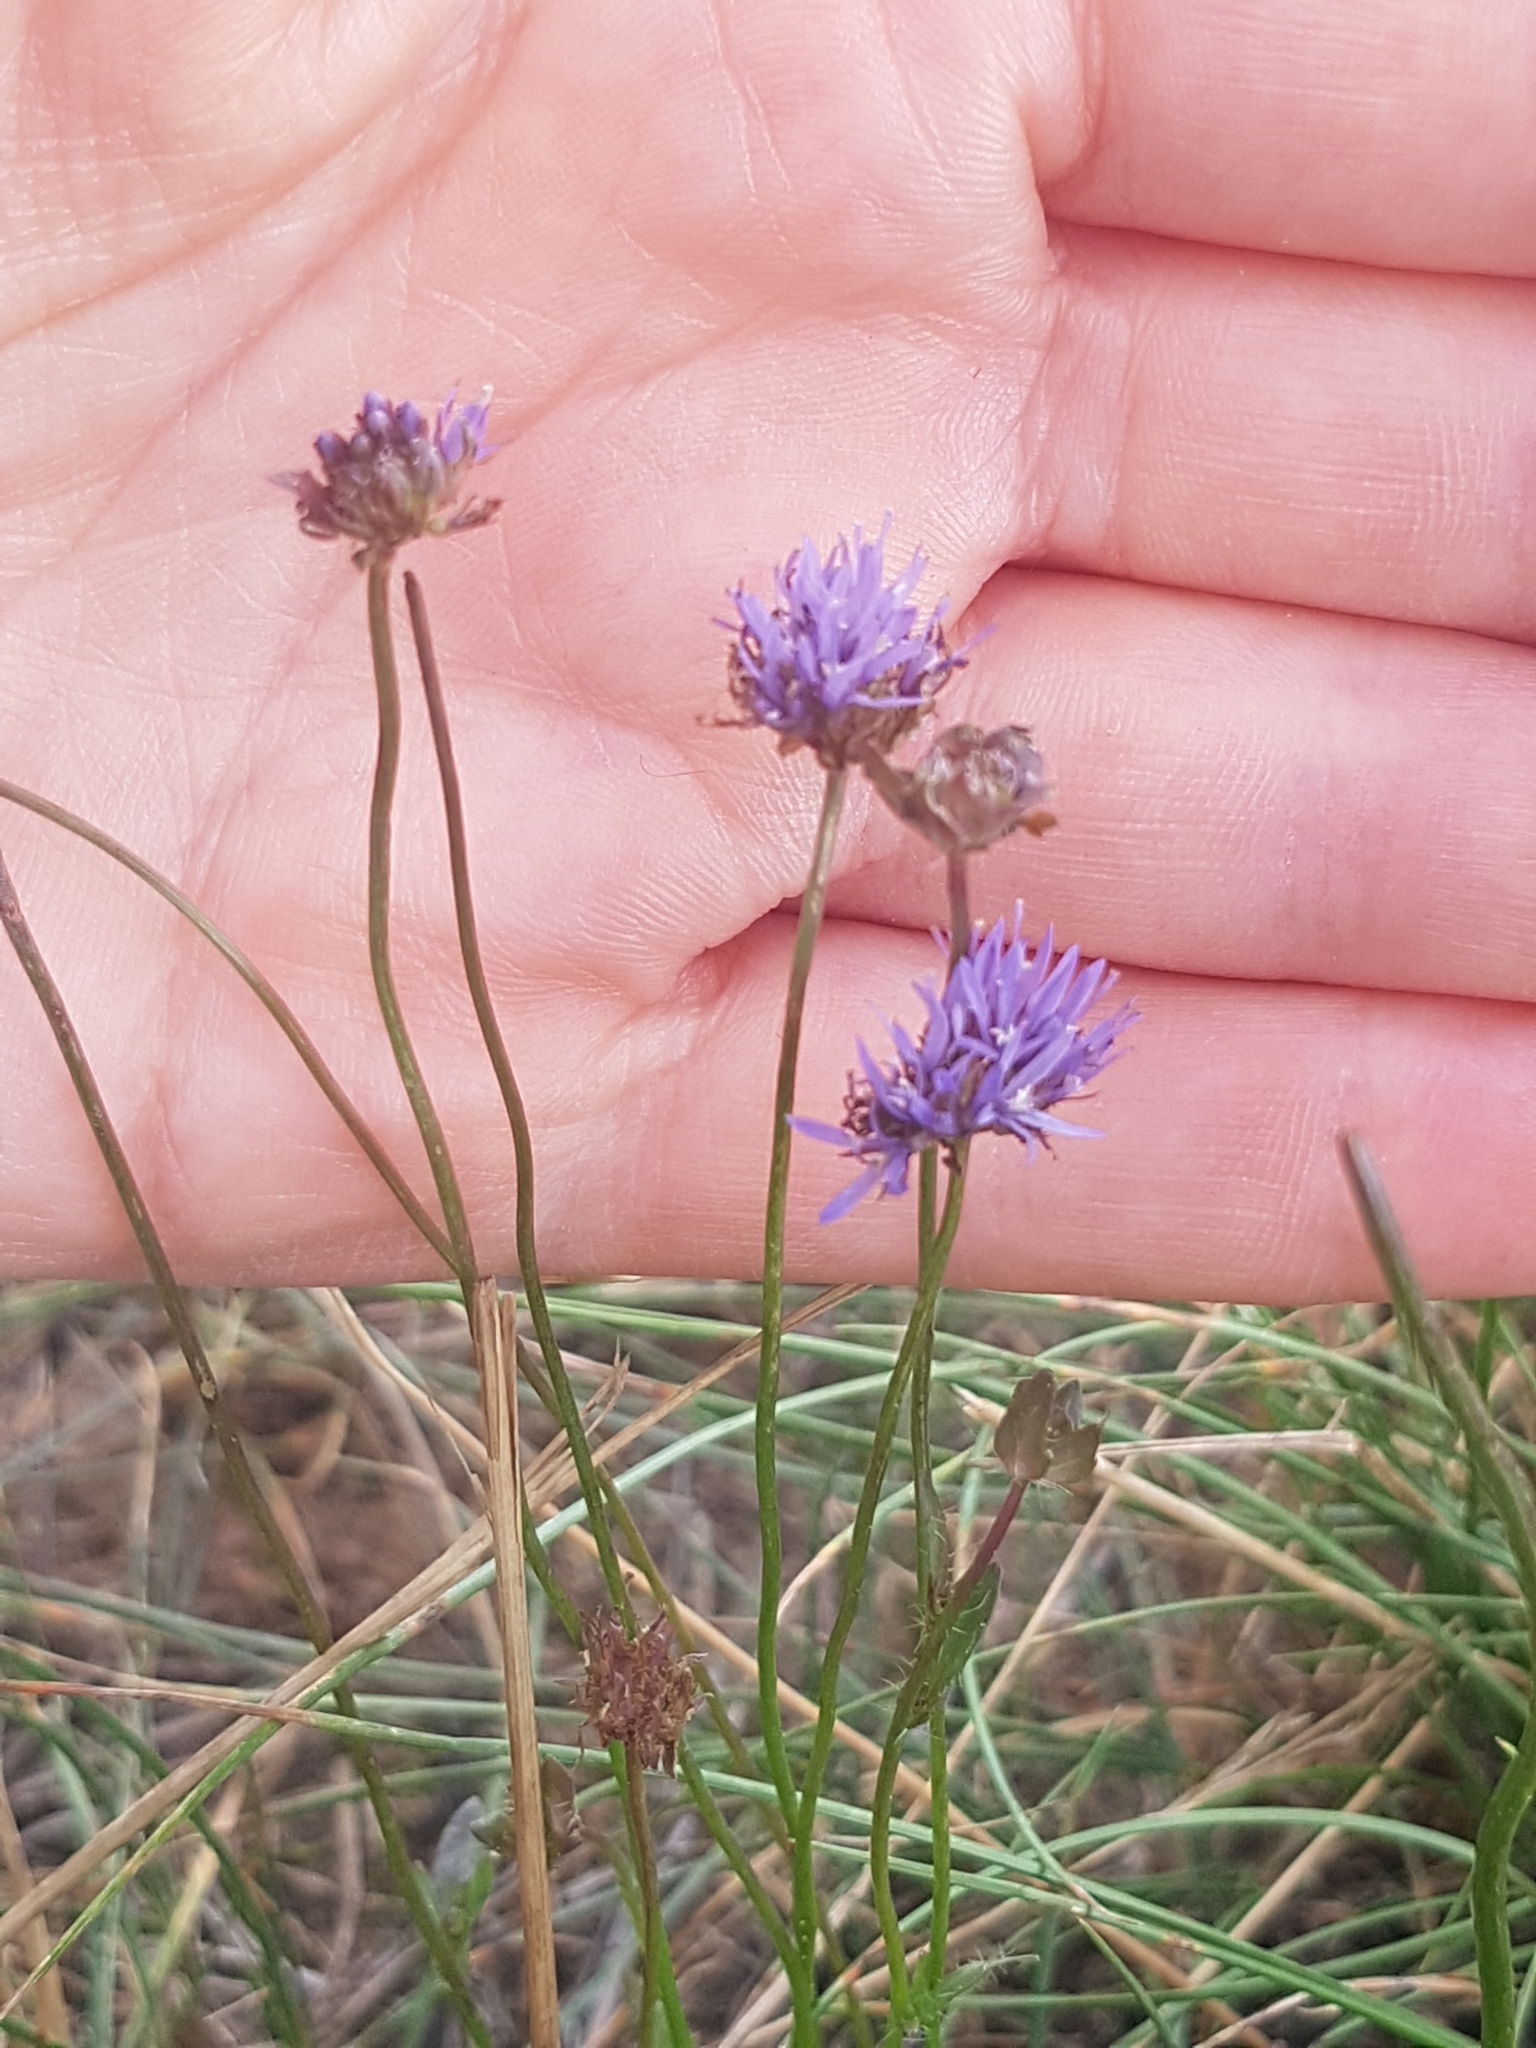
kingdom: Plantae
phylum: Tracheophyta
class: Magnoliopsida
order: Asterales
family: Campanulaceae
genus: Jasione
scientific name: Jasione montana
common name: Sheep's-bit
